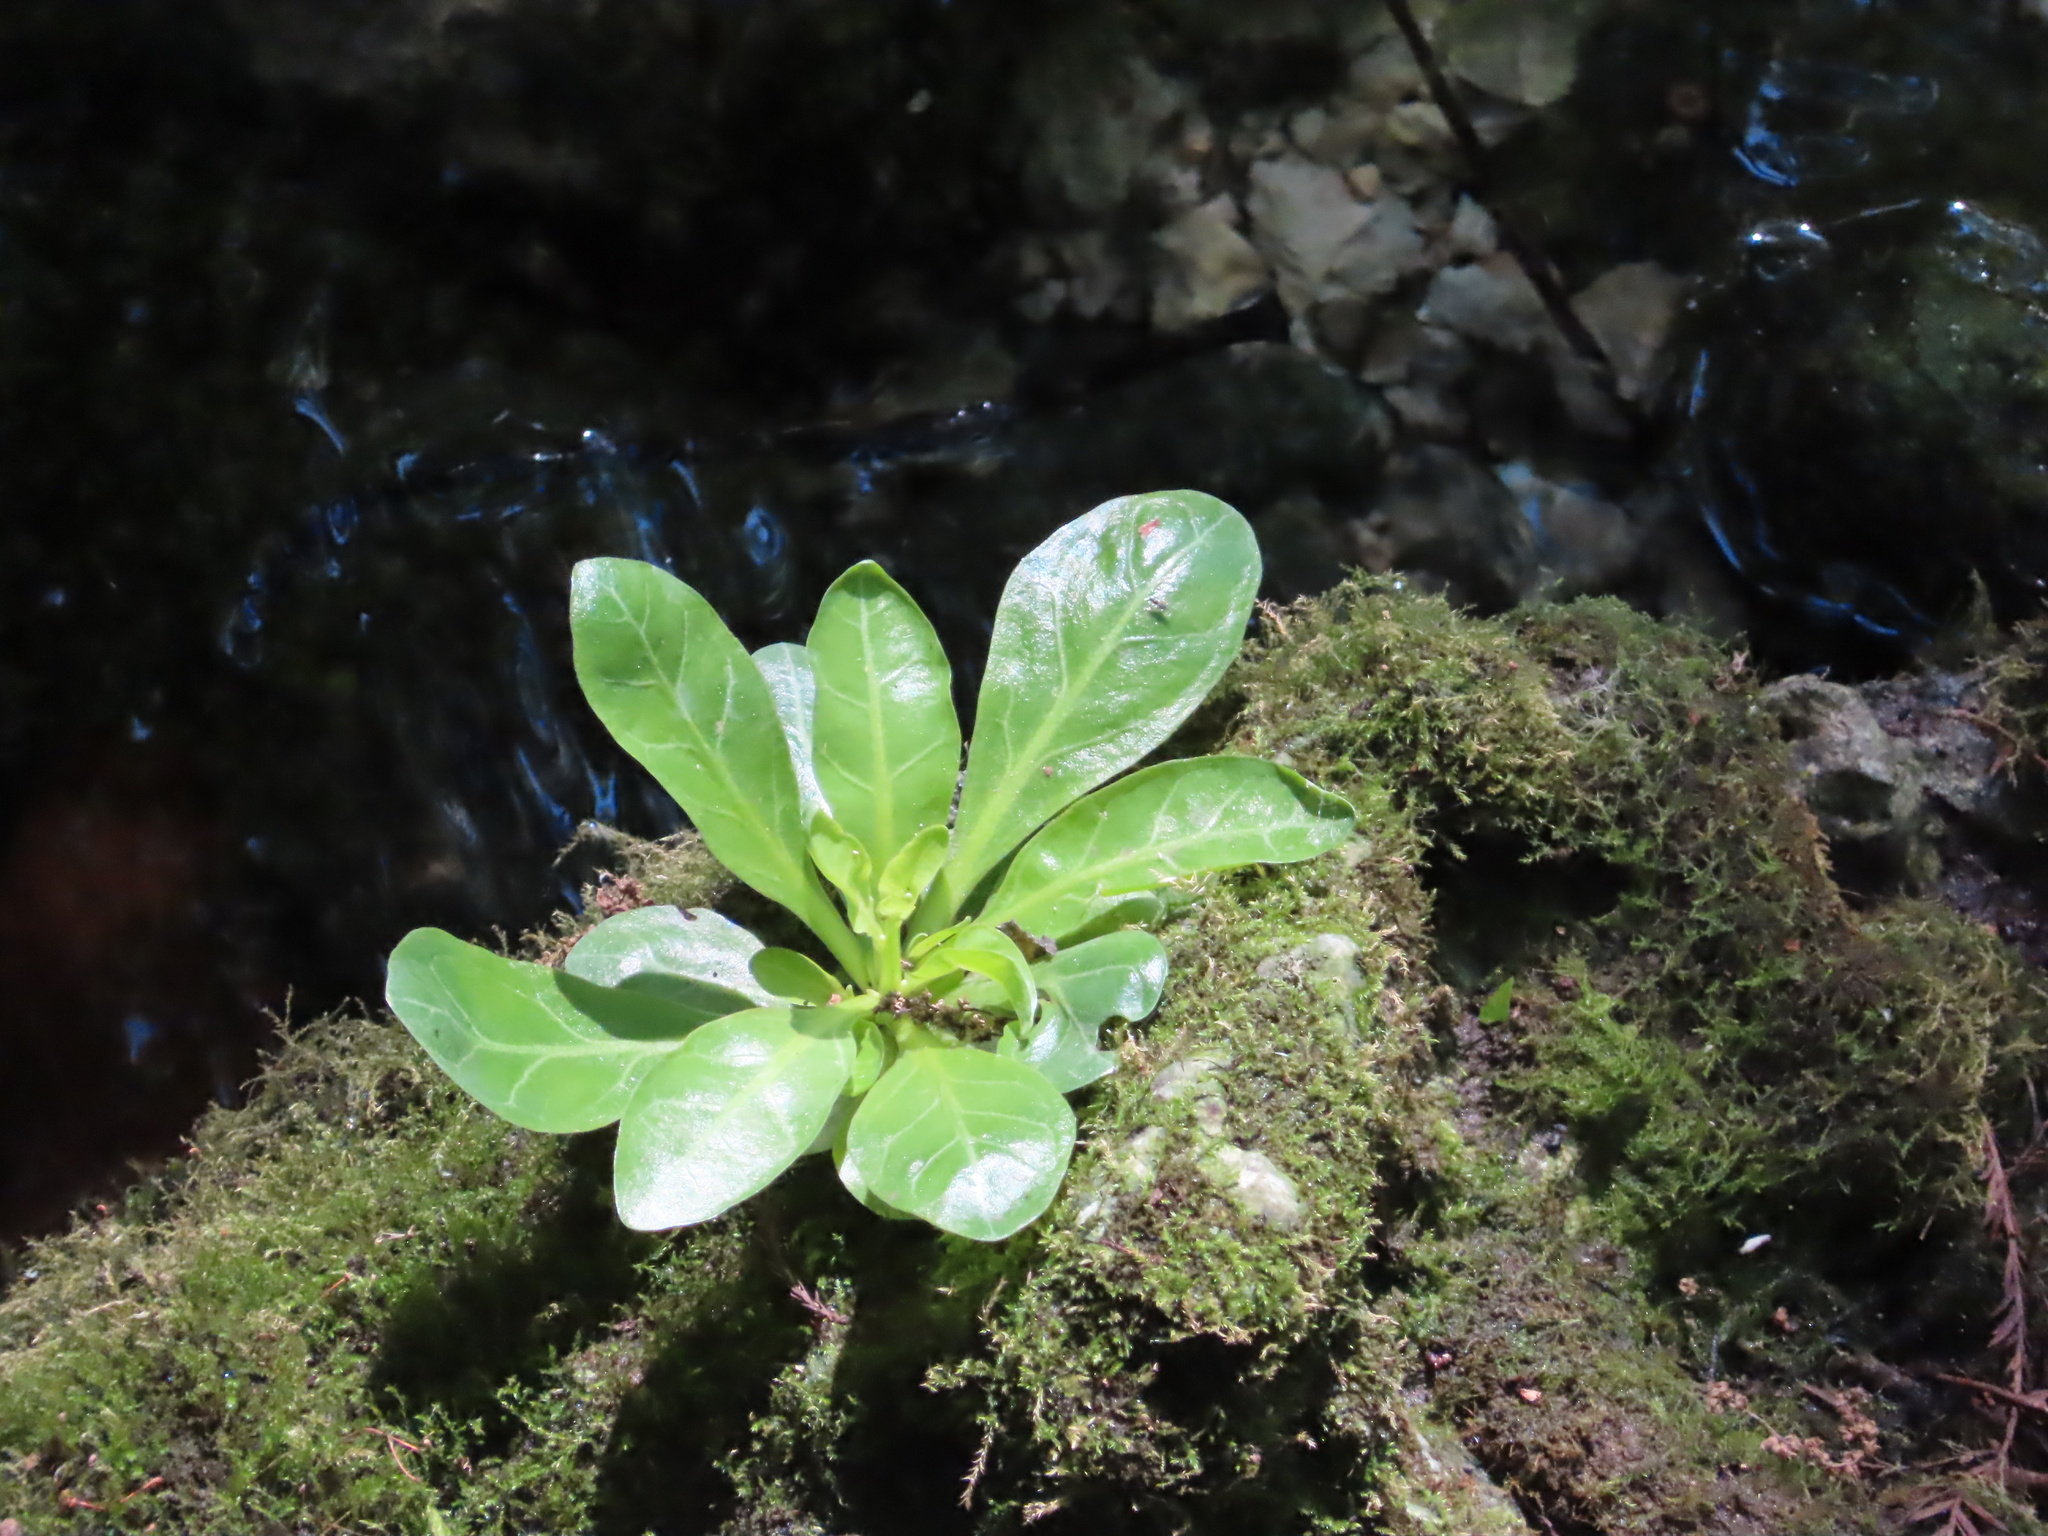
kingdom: Plantae
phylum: Tracheophyta
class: Magnoliopsida
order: Ericales
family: Primulaceae
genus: Samolus
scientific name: Samolus parviflorus
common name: False water pimpernel
